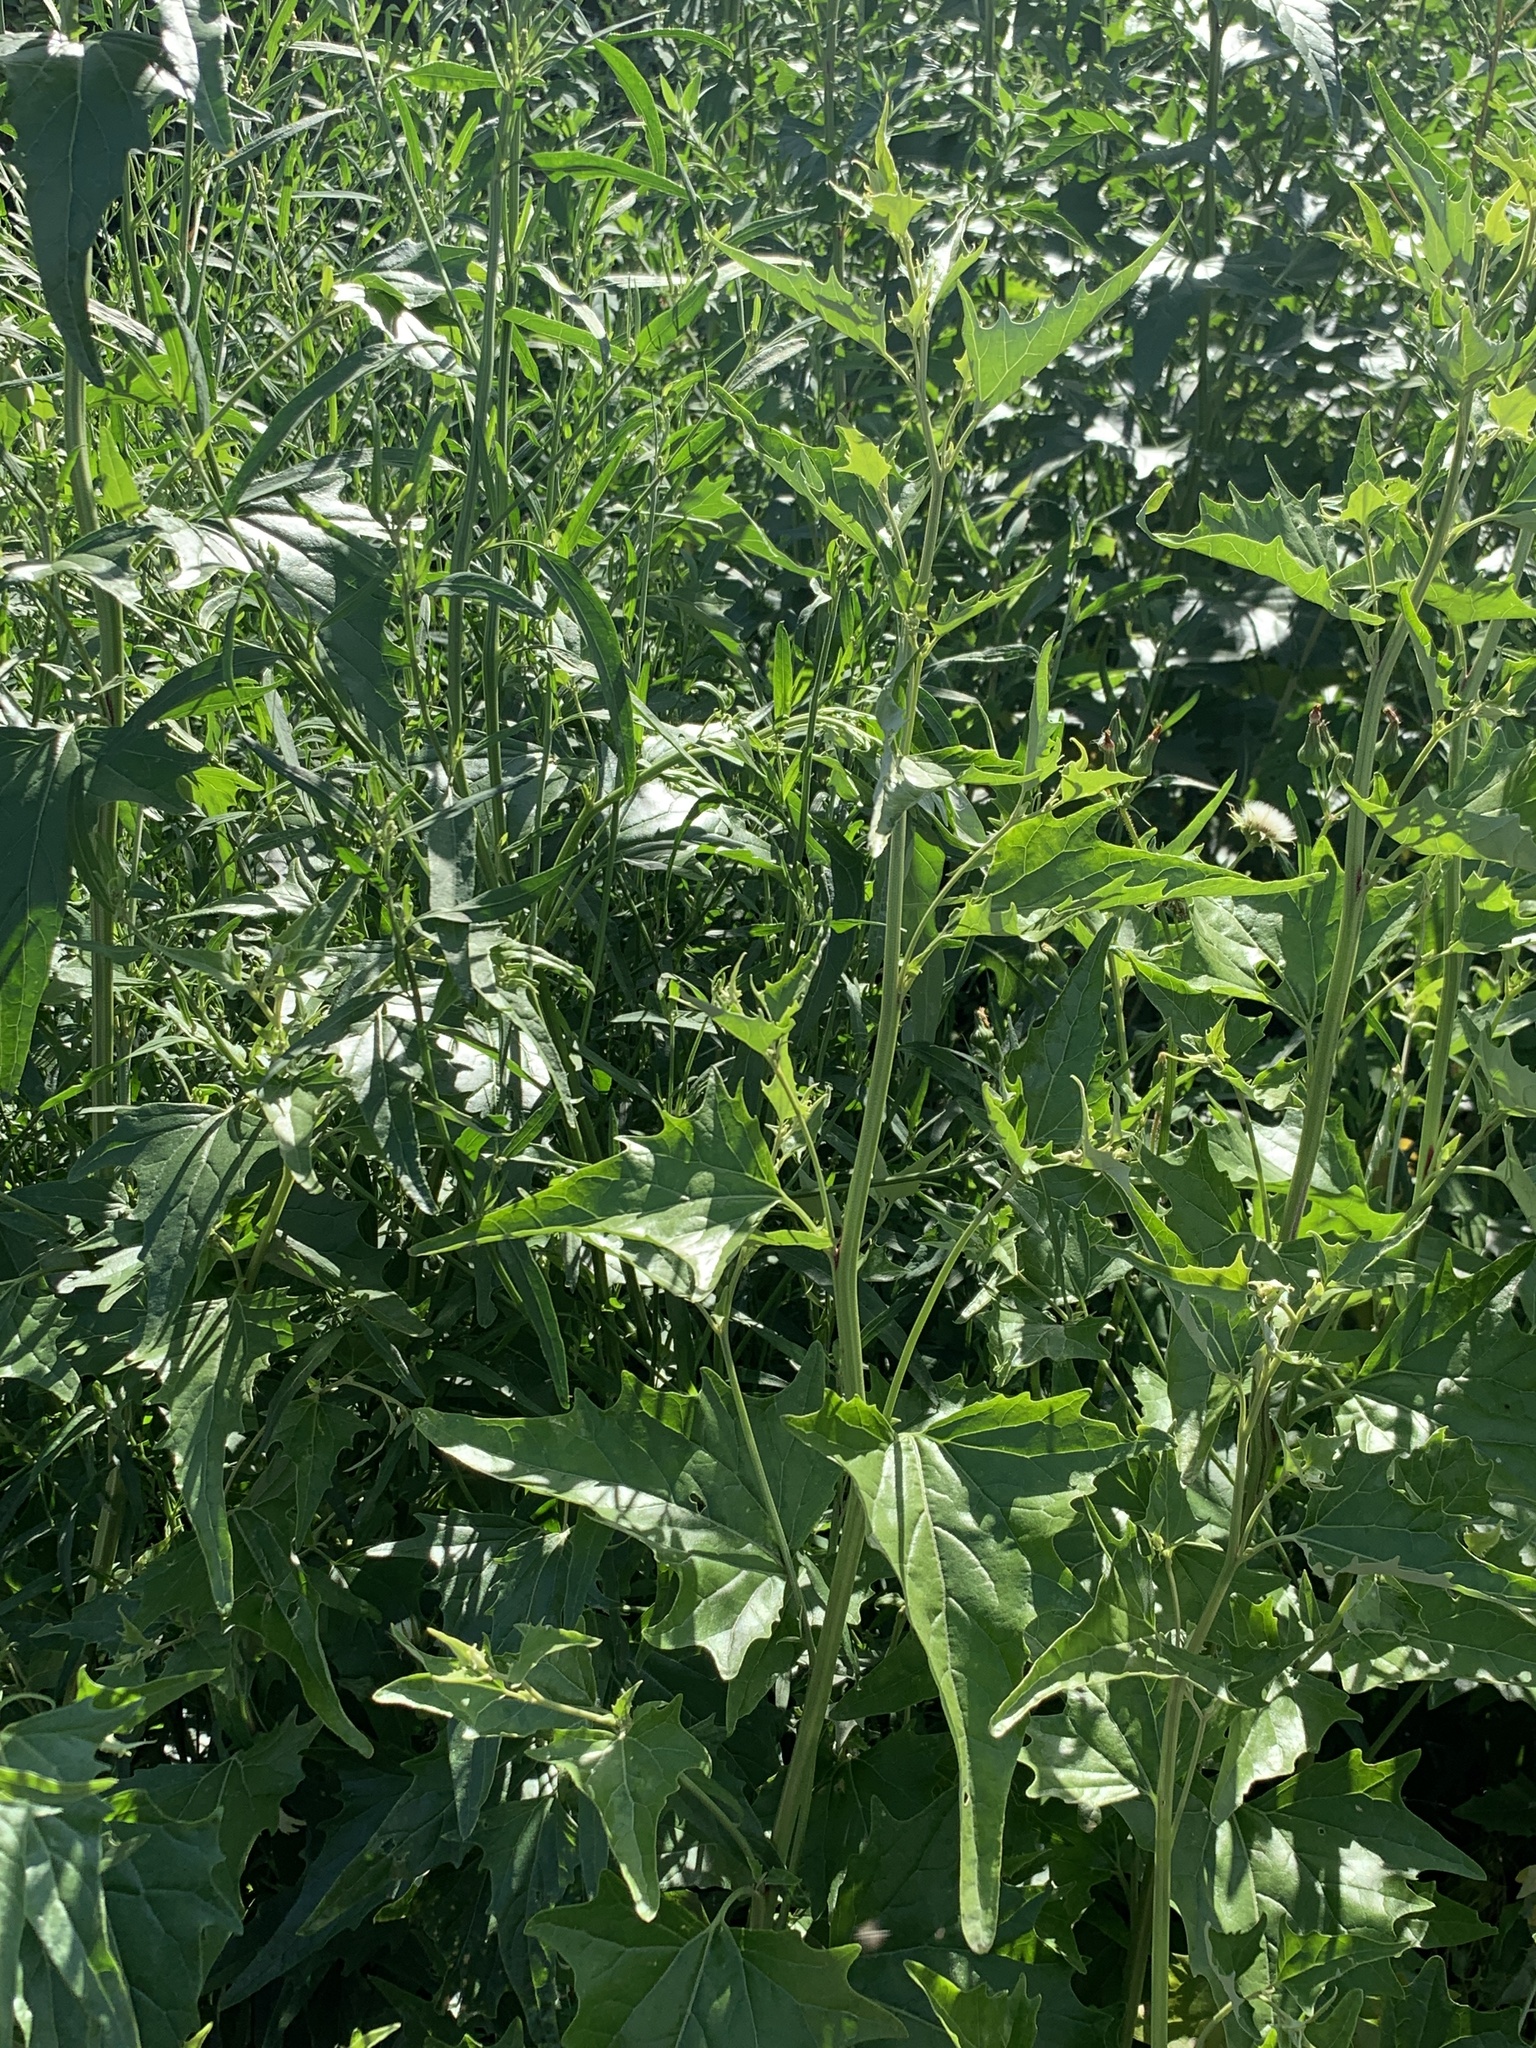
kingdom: Plantae
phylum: Tracheophyta
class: Magnoliopsida
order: Caryophyllales
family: Amaranthaceae
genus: Atriplex
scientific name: Atriplex sagittata
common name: Purple orache
